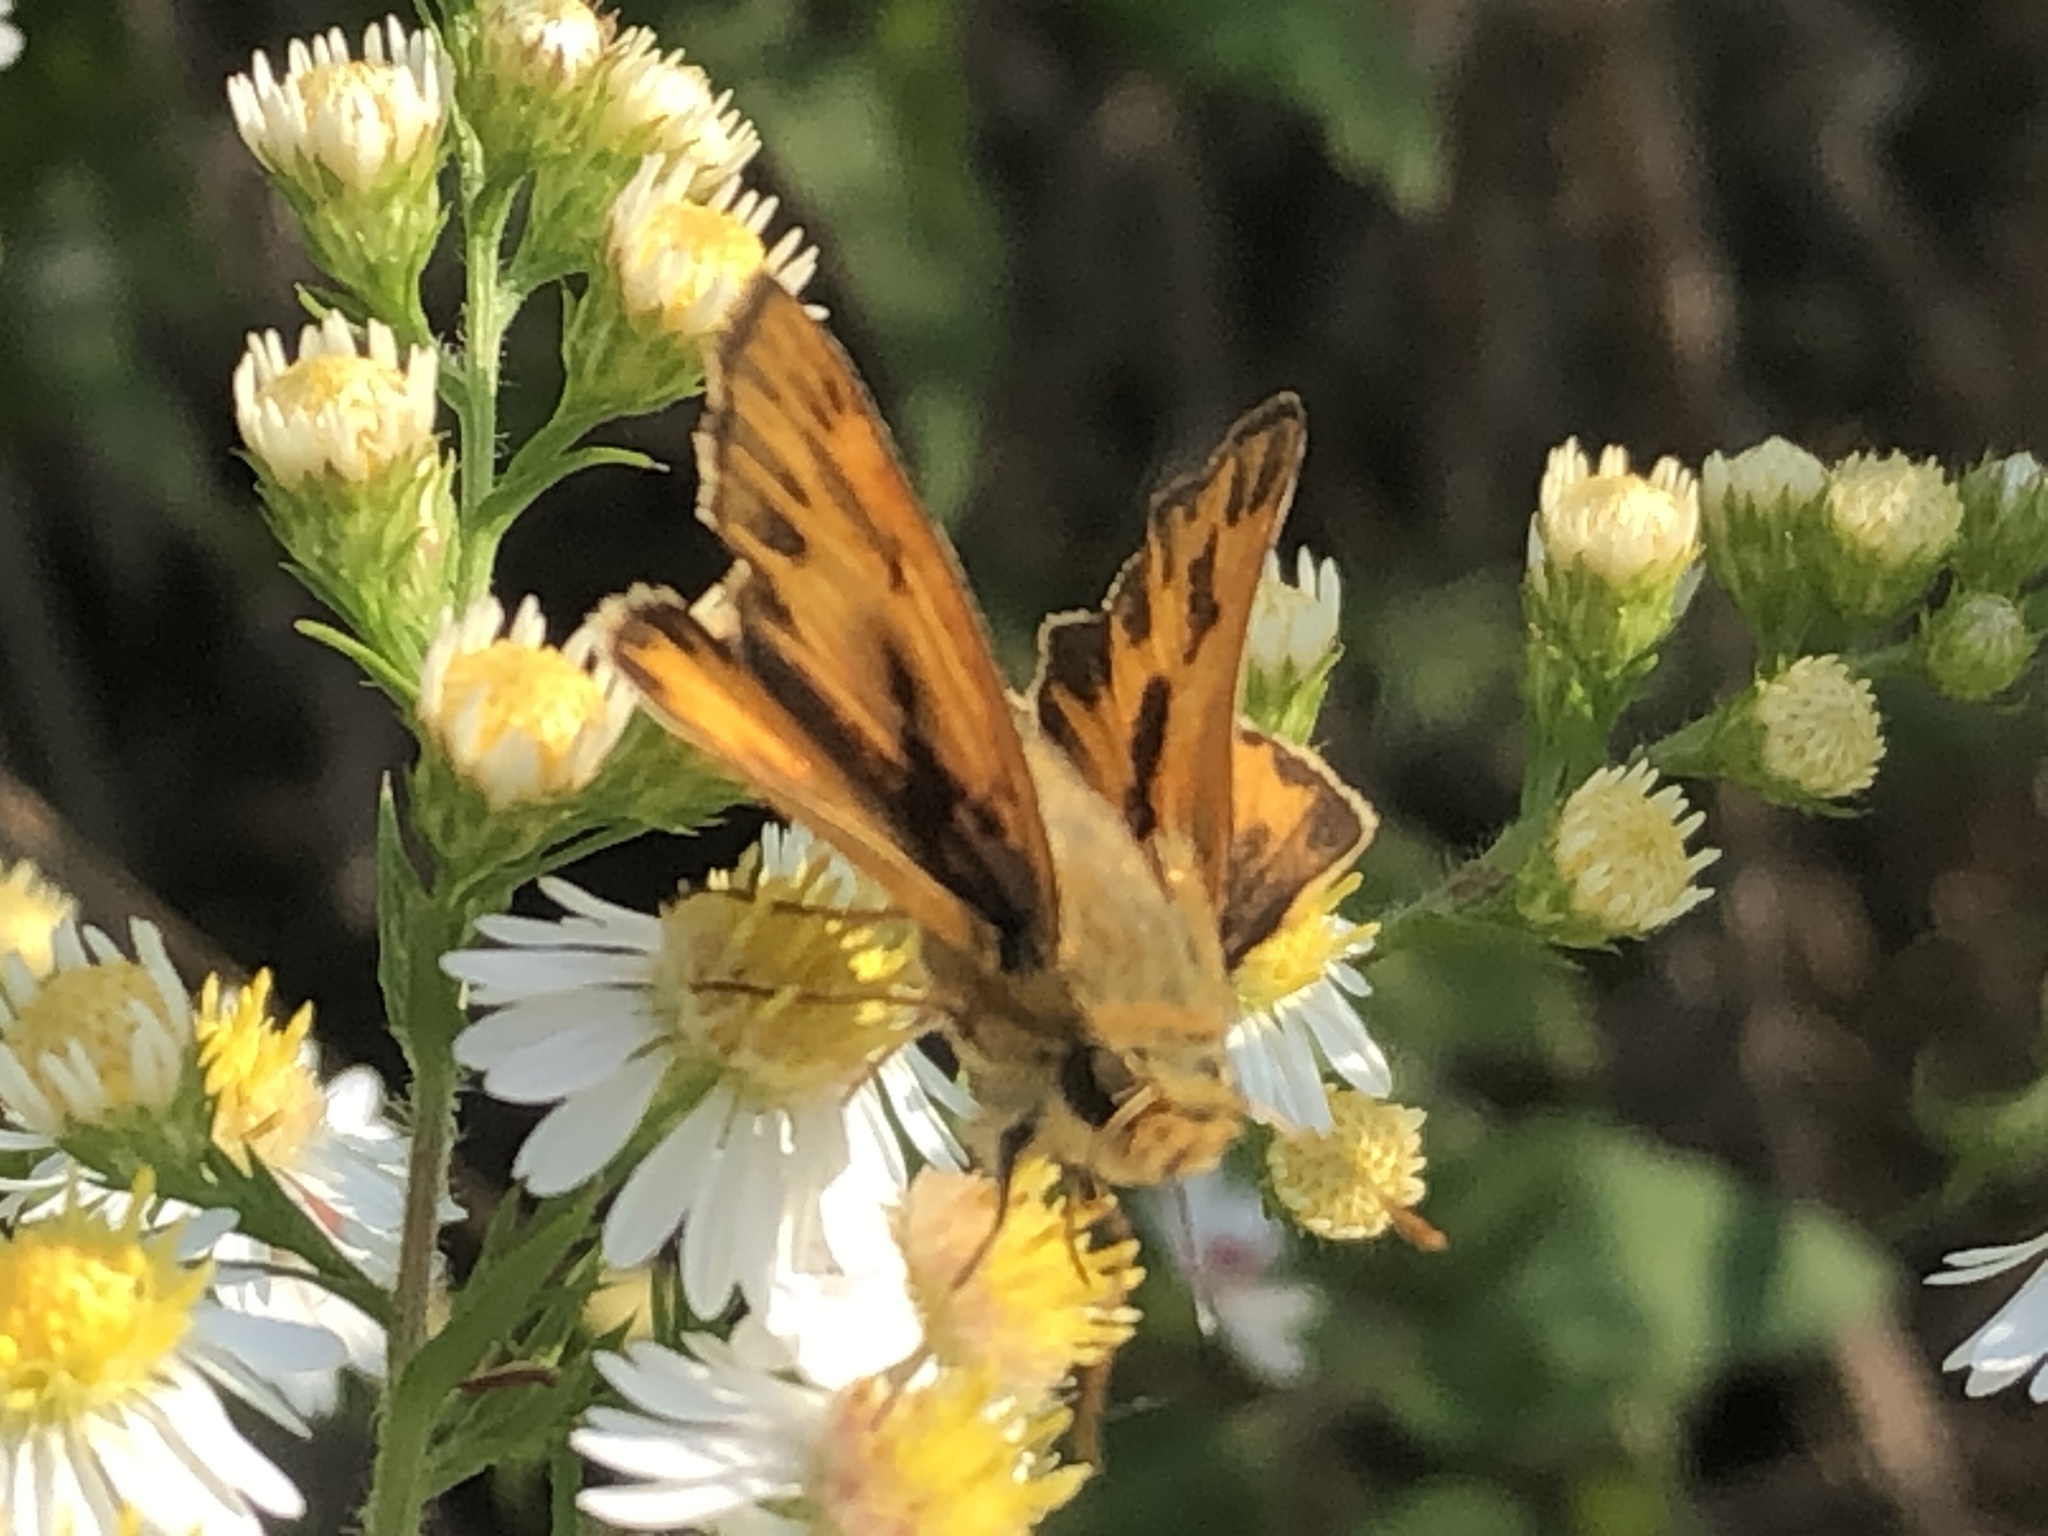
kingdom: Animalia
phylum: Arthropoda
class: Insecta
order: Lepidoptera
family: Hesperiidae
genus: Hylephila
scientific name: Hylephila phyleus
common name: Fiery skipper
